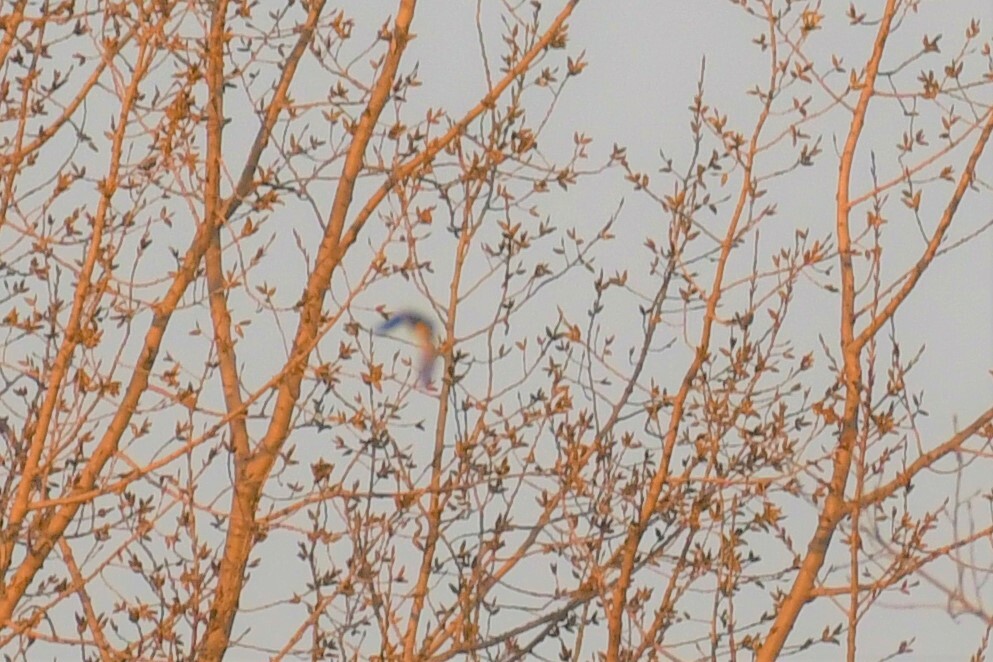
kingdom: Animalia
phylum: Chordata
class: Aves
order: Passeriformes
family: Turdidae
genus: Sialia
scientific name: Sialia sialis
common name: Eastern bluebird
